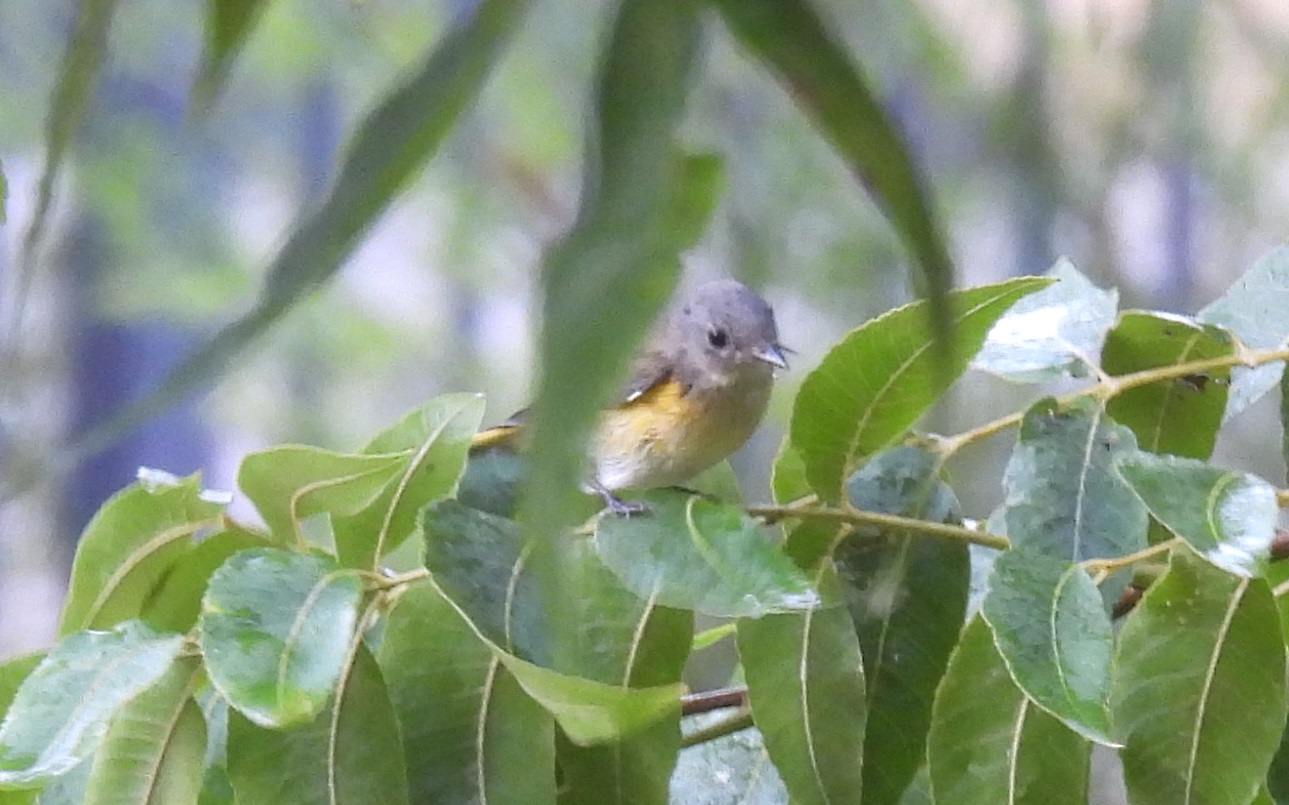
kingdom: Animalia
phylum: Chordata
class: Aves
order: Passeriformes
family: Parulidae
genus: Setophaga
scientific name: Setophaga ruticilla
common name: American redstart
